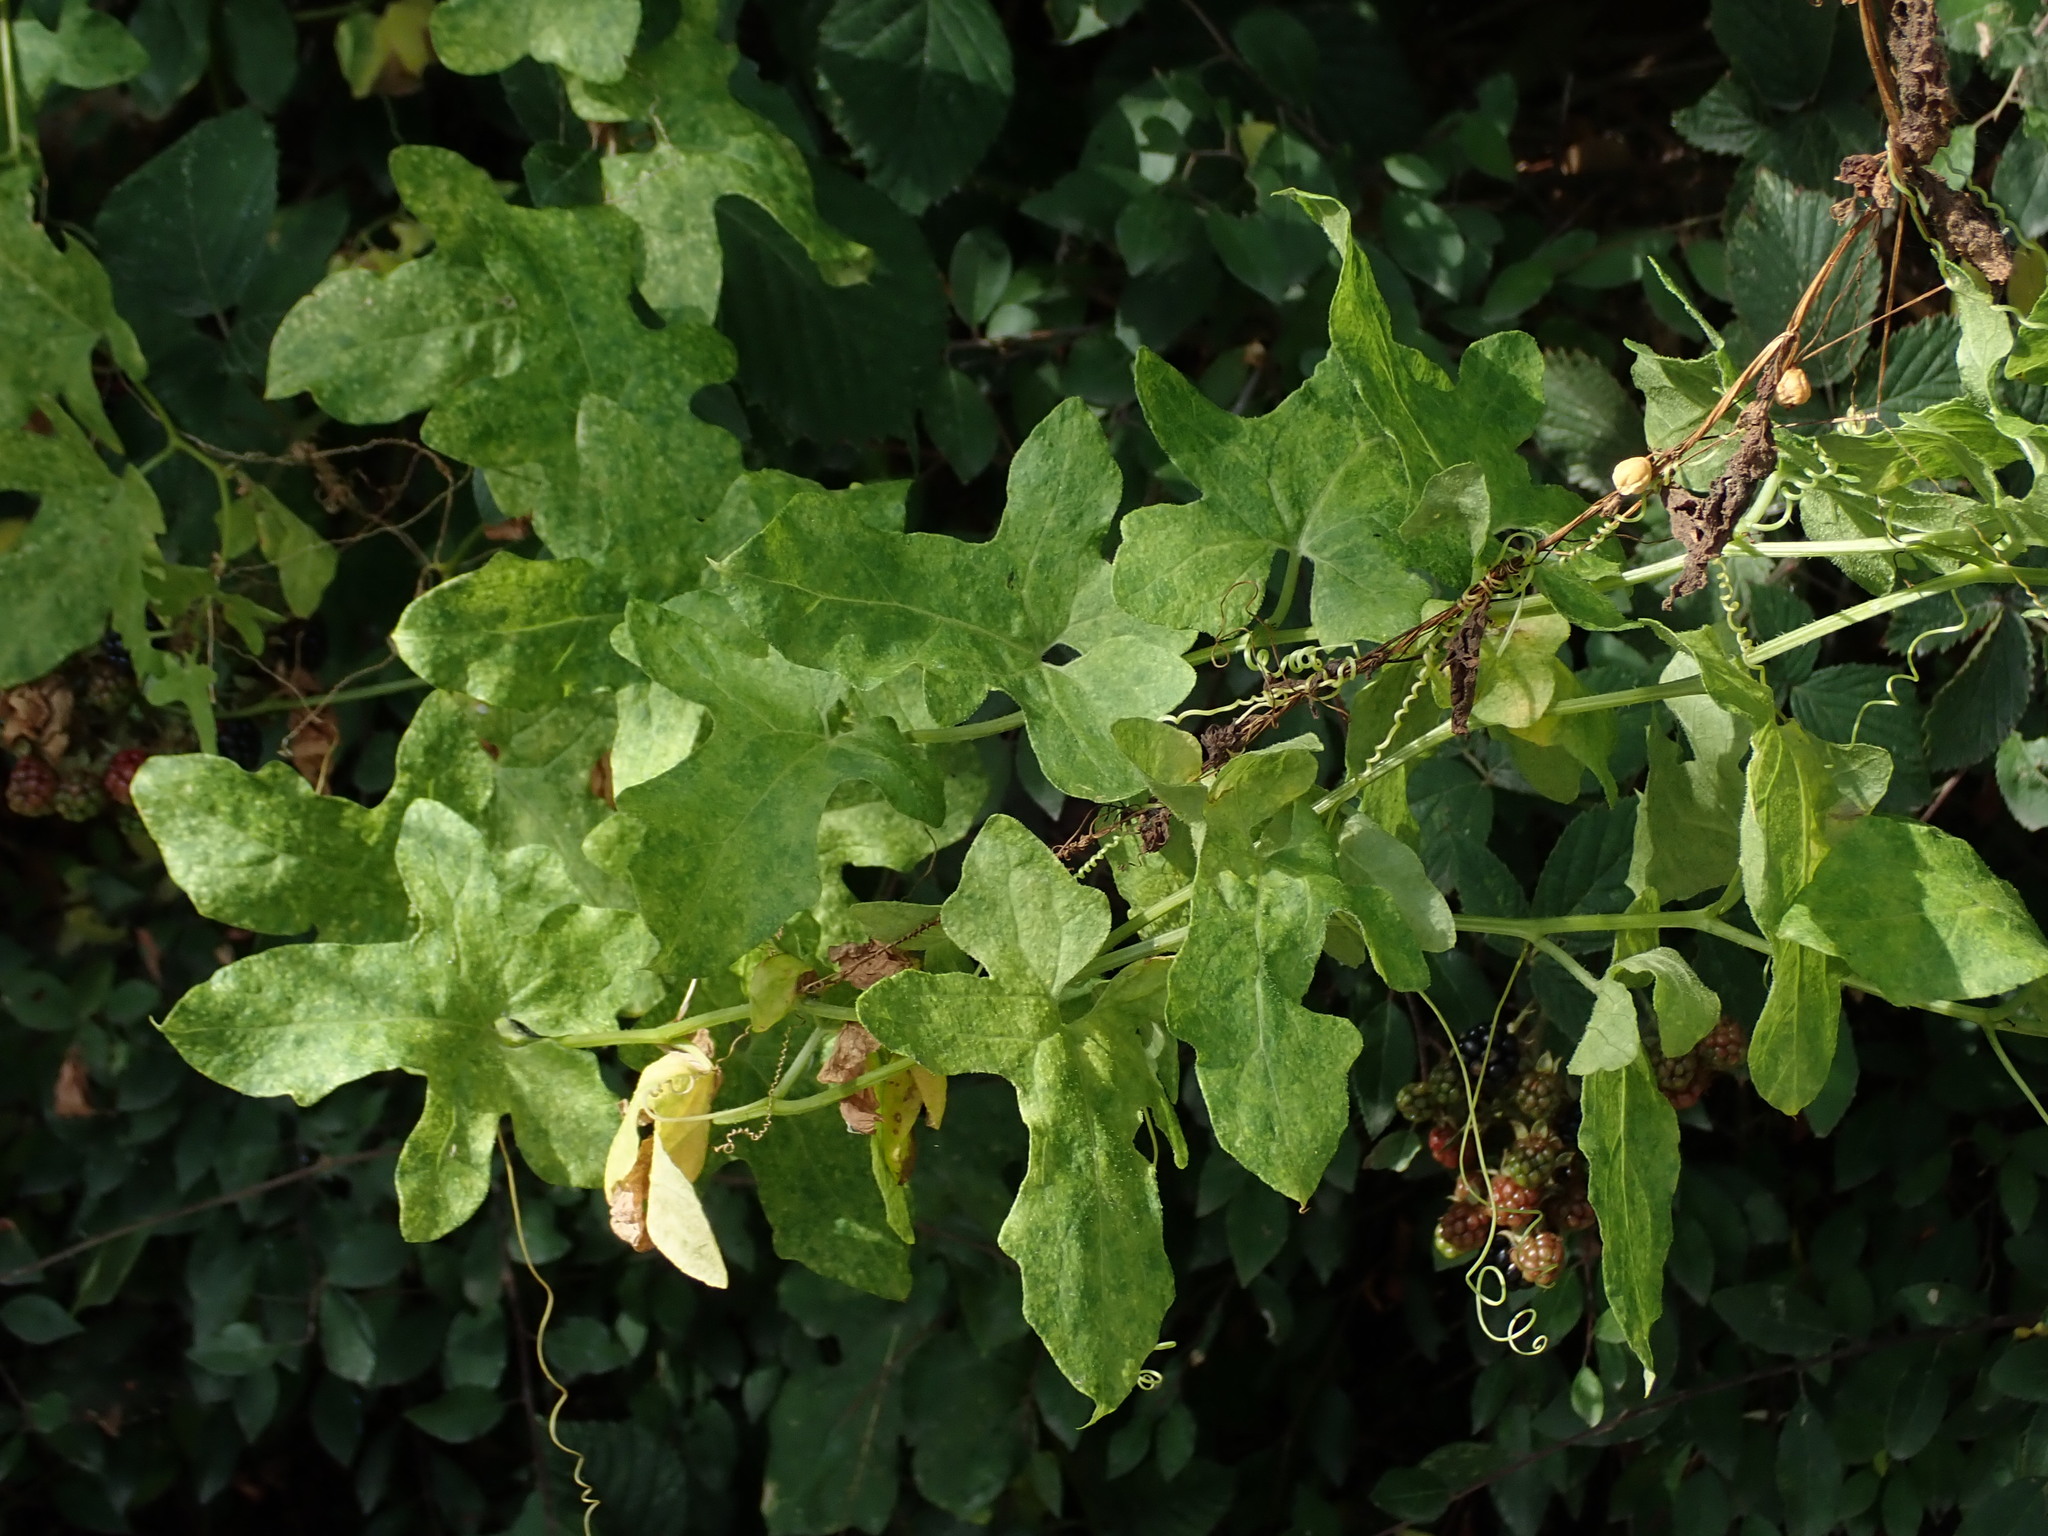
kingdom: Plantae
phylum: Tracheophyta
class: Magnoliopsida
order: Cucurbitales
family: Cucurbitaceae
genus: Bryonia
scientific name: Bryonia cretica
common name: Cretan bryony
